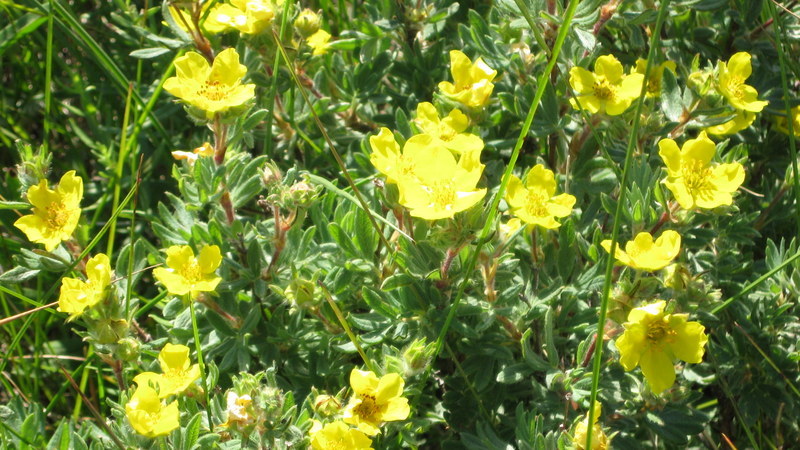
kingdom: Plantae
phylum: Tracheophyta
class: Magnoliopsida
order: Rosales
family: Rosaceae
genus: Dasiphora
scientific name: Dasiphora fruticosa
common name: Shrubby cinquefoil
